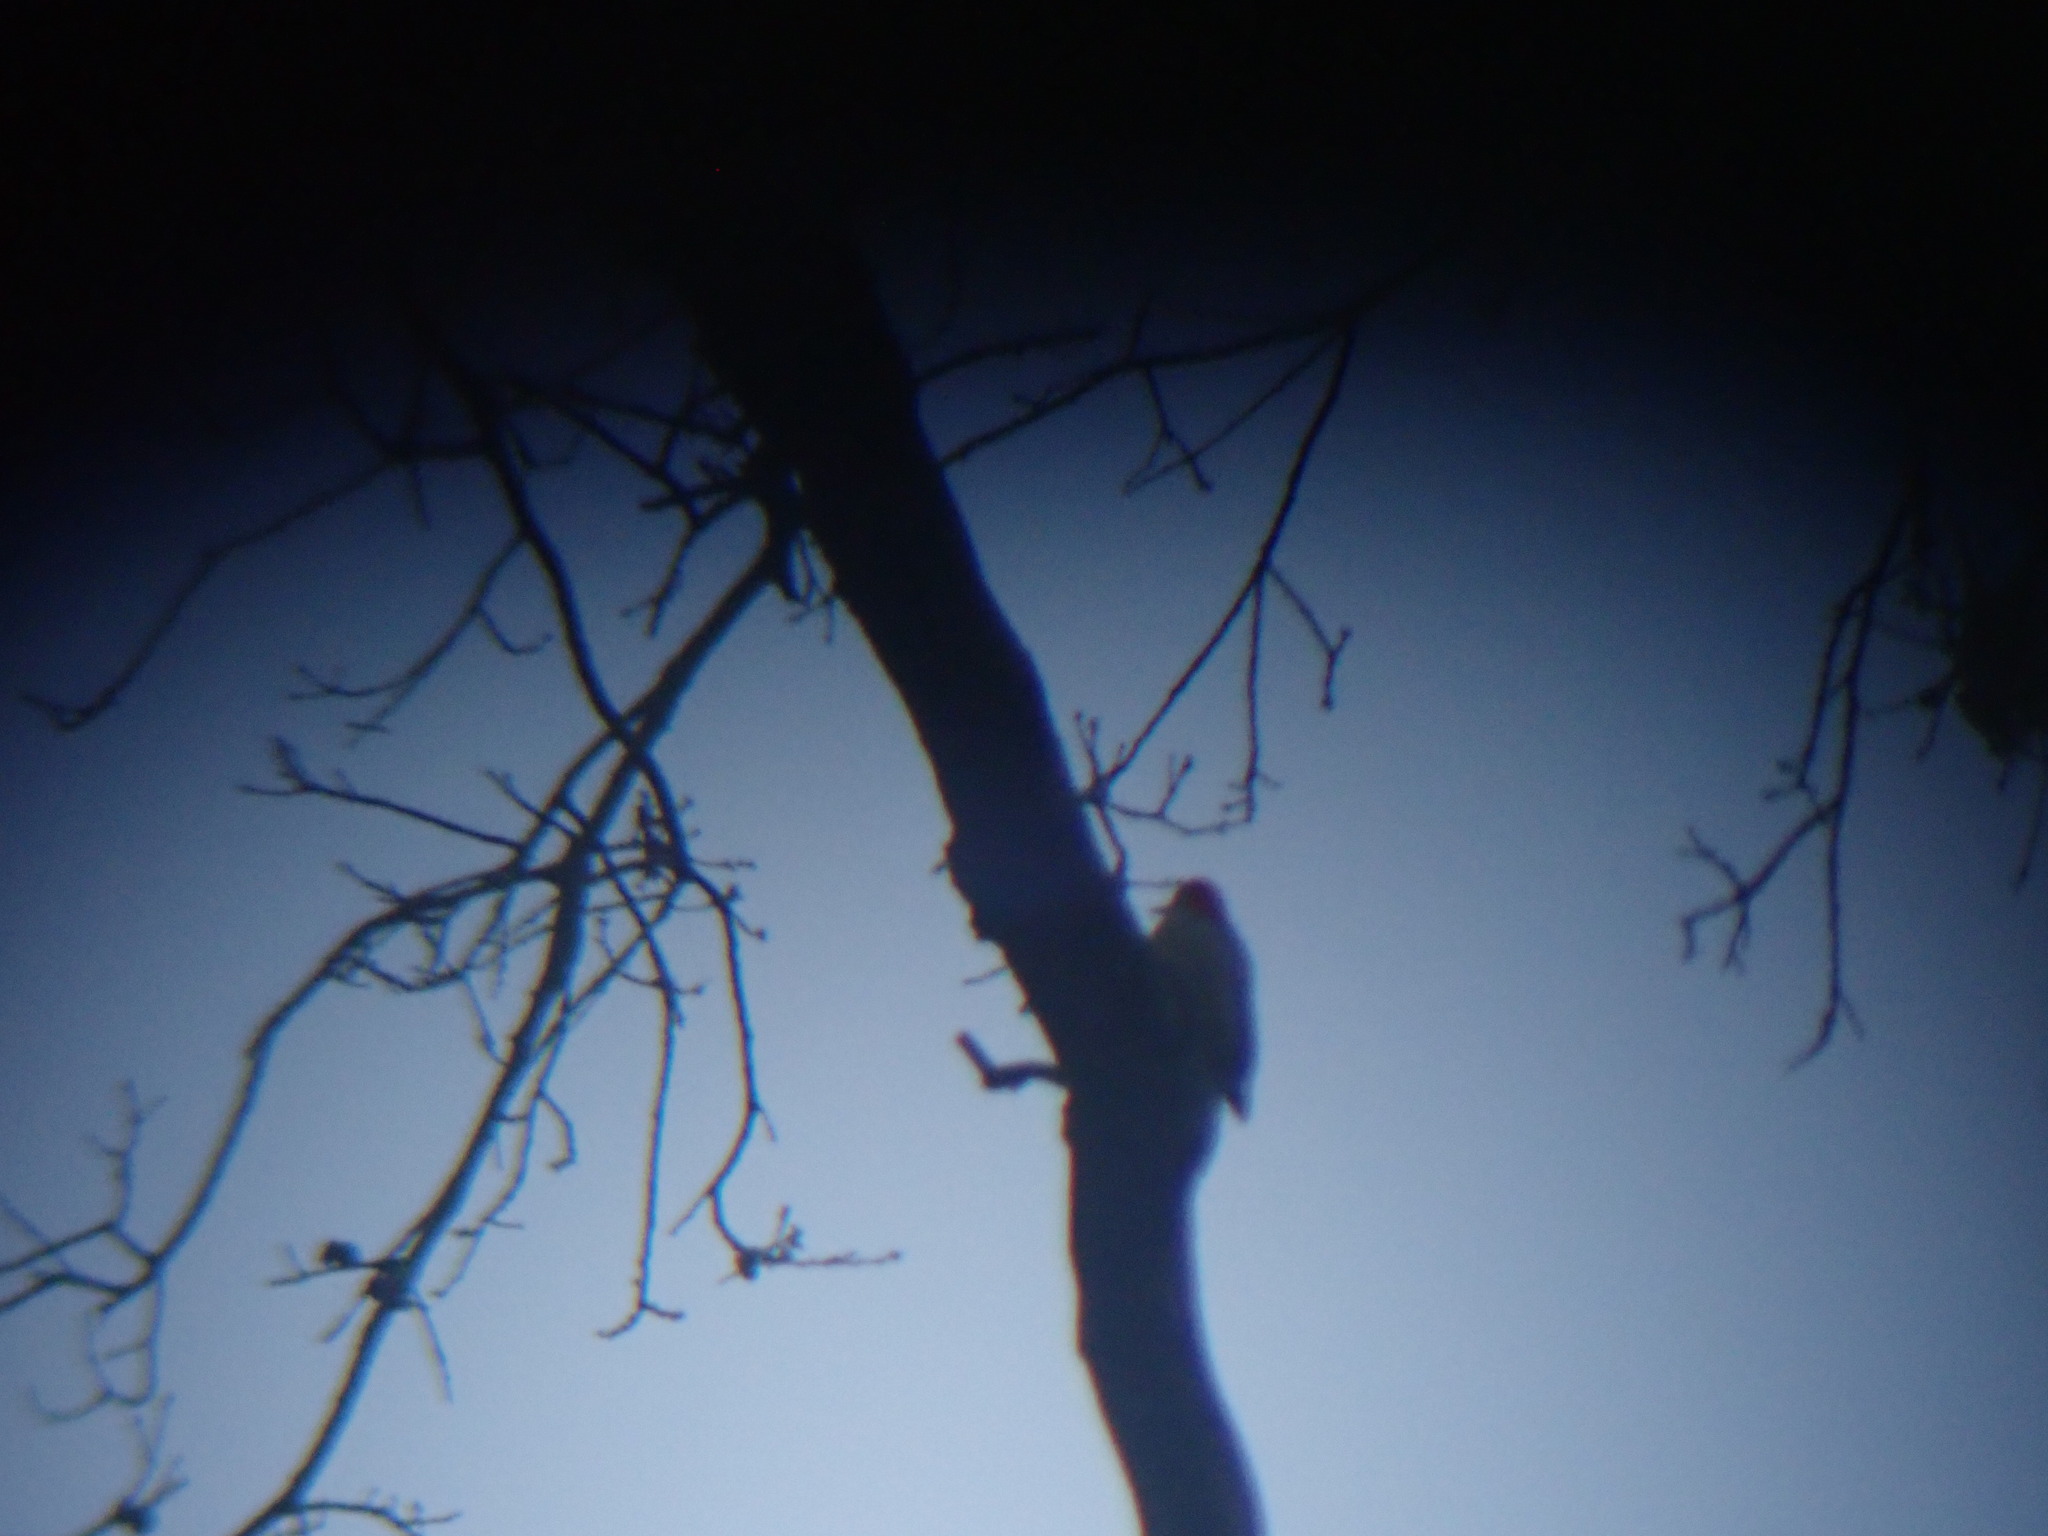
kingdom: Animalia
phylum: Chordata
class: Aves
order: Piciformes
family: Picidae
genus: Melanerpes
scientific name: Melanerpes carolinus
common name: Red-bellied woodpecker
